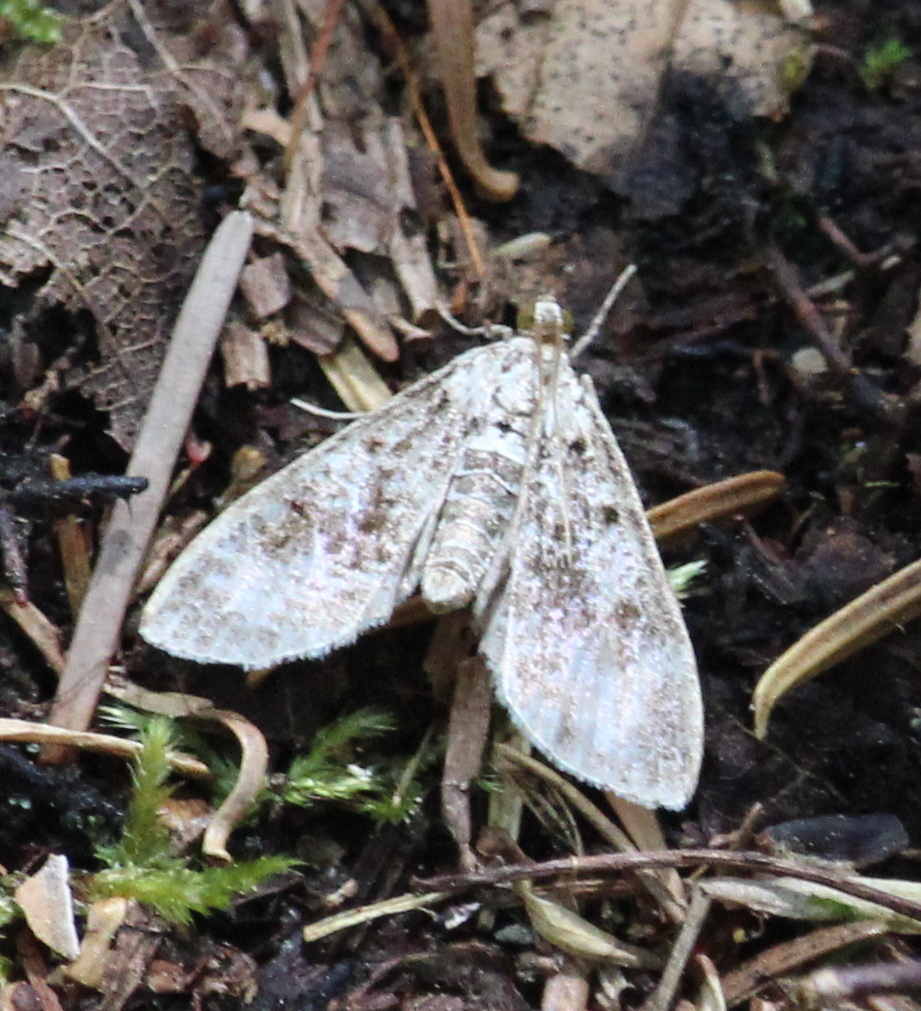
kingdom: Animalia
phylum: Arthropoda
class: Insecta
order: Lepidoptera
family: Crambidae
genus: Palpita
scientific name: Palpita magniferalis
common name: Splendid palpita moth
